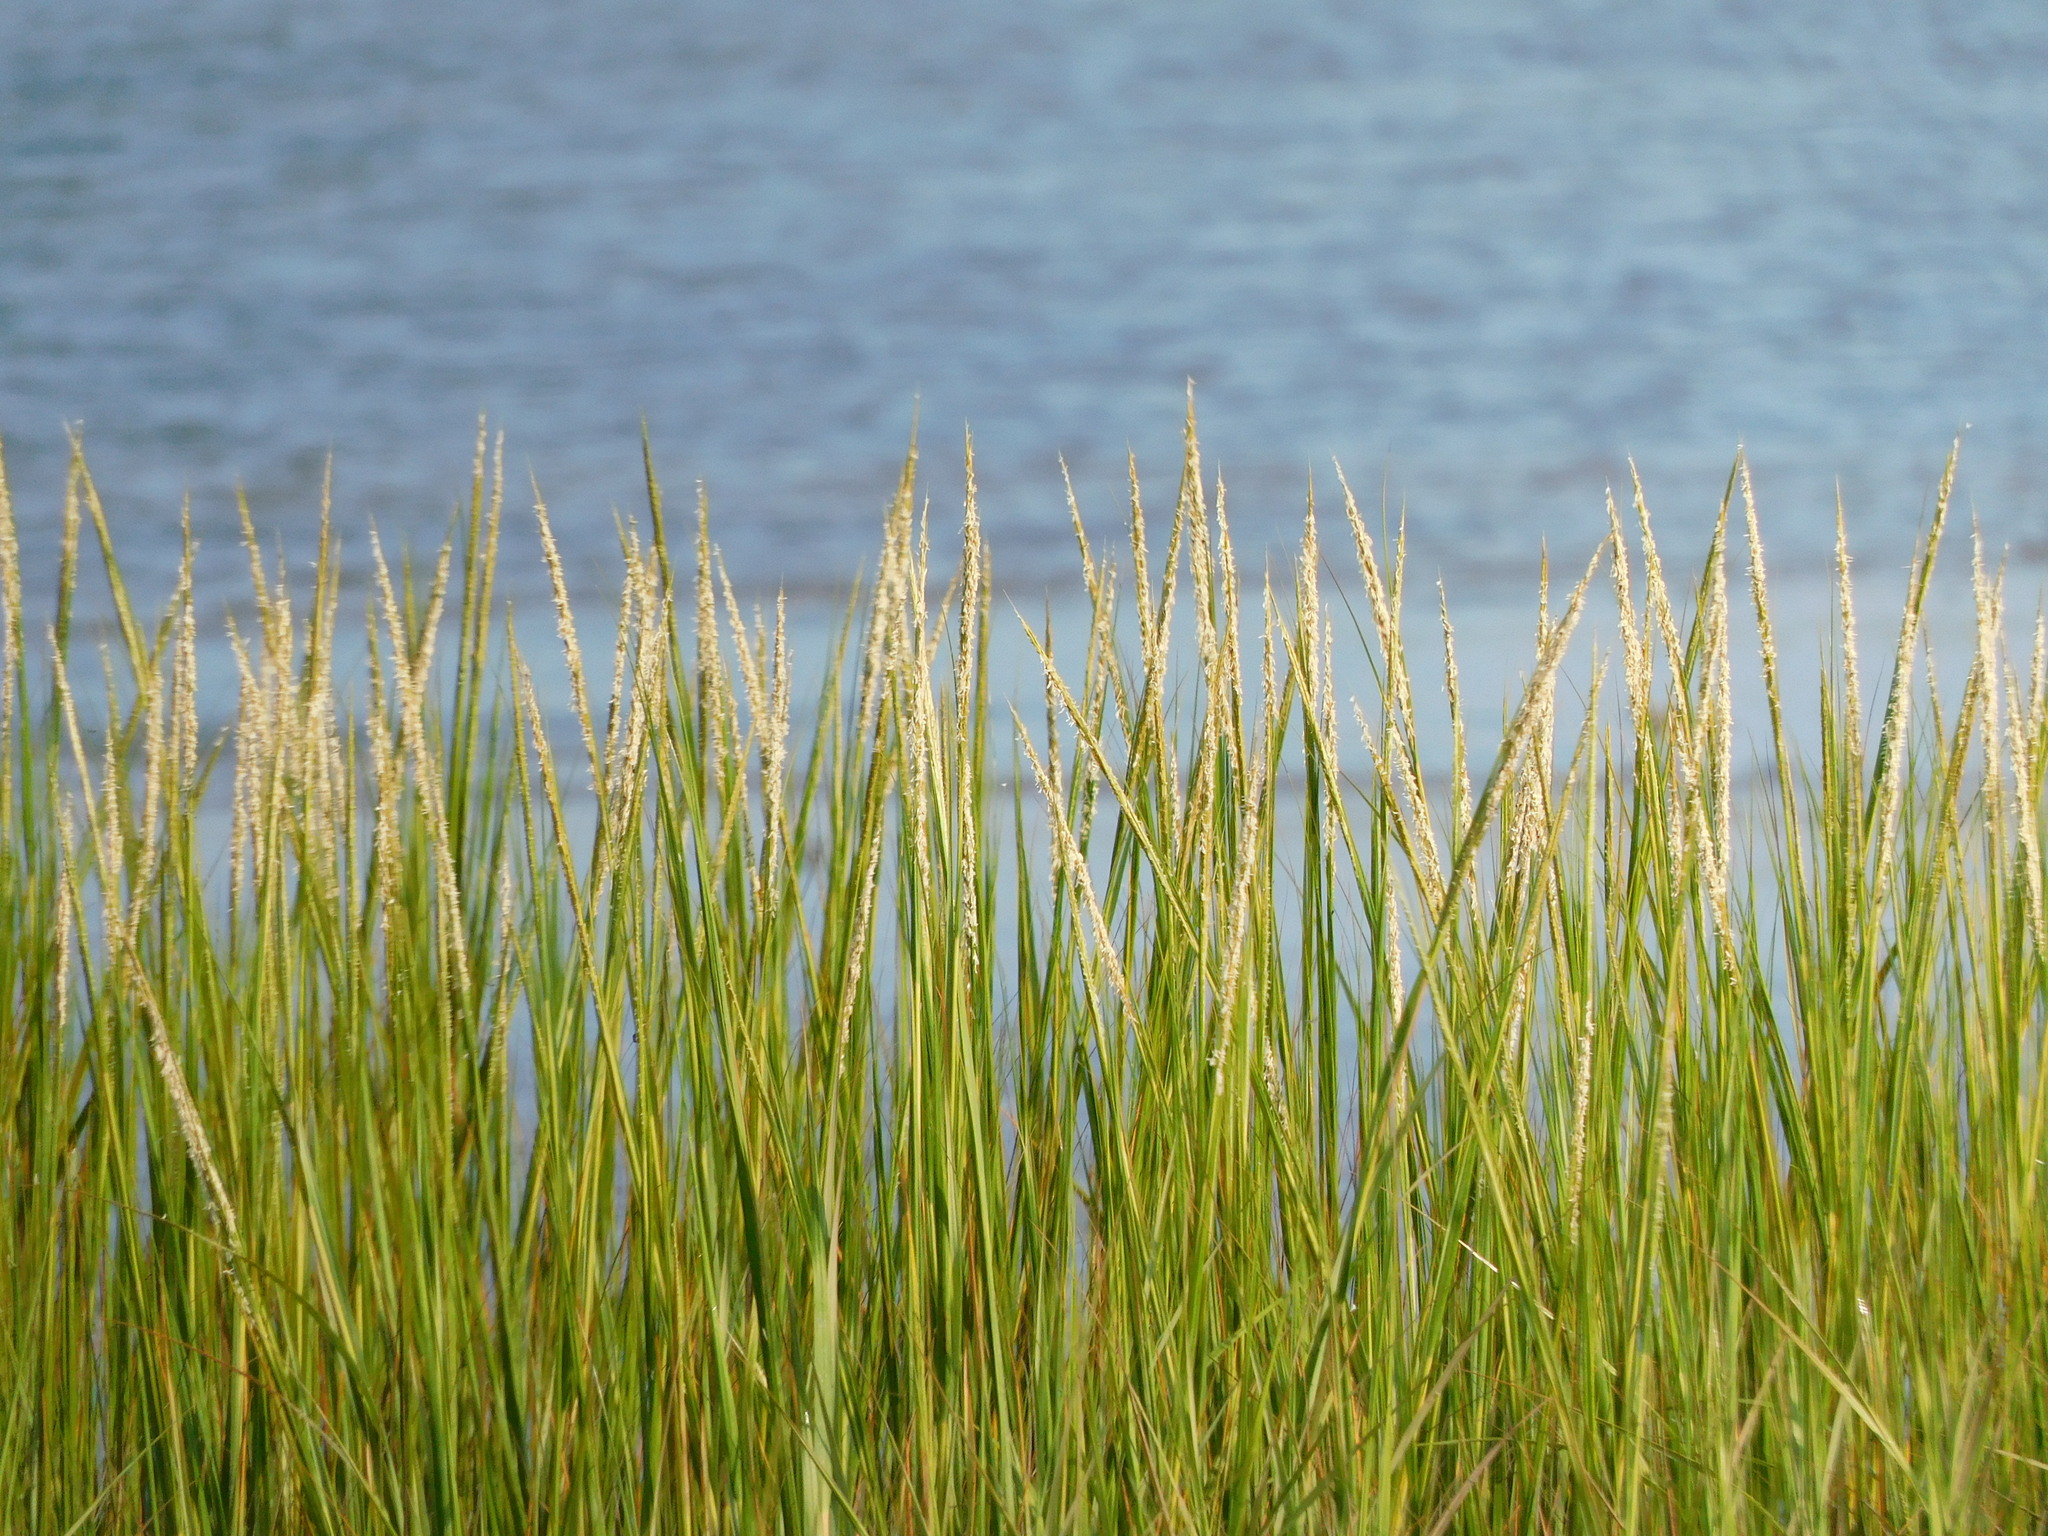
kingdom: Plantae
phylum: Tracheophyta
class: Liliopsida
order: Poales
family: Poaceae
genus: Sporobolus
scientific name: Sporobolus alterniflorus
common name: Atlantic cordgrass
